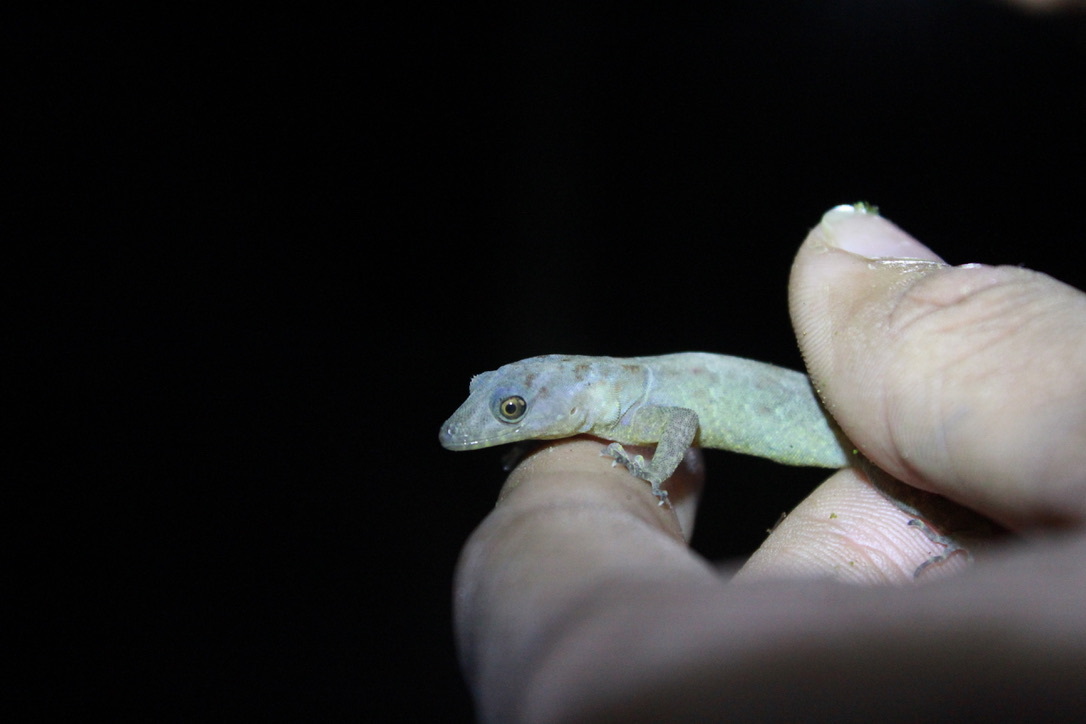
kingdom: Animalia
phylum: Chordata
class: Squamata
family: Sphaerodactylidae
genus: Gonatodes
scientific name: Gonatodes ceciliae
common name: Brilliant south american gecko
